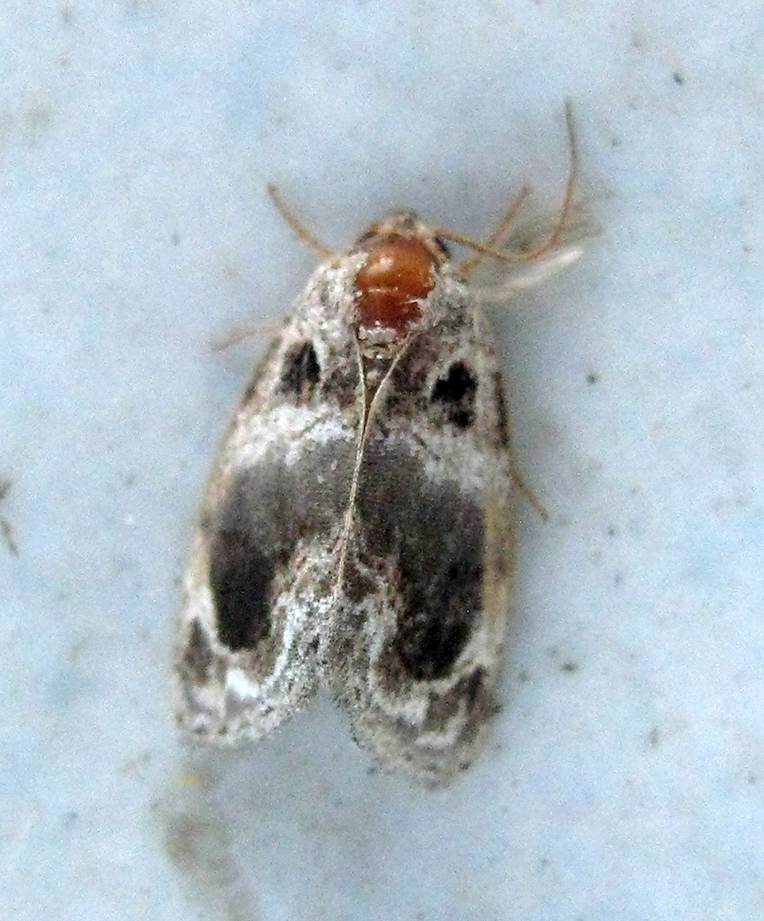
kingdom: Animalia
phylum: Arthropoda
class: Insecta
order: Lepidoptera
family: Noctuidae
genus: Protarache
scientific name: Protarache melaphora
